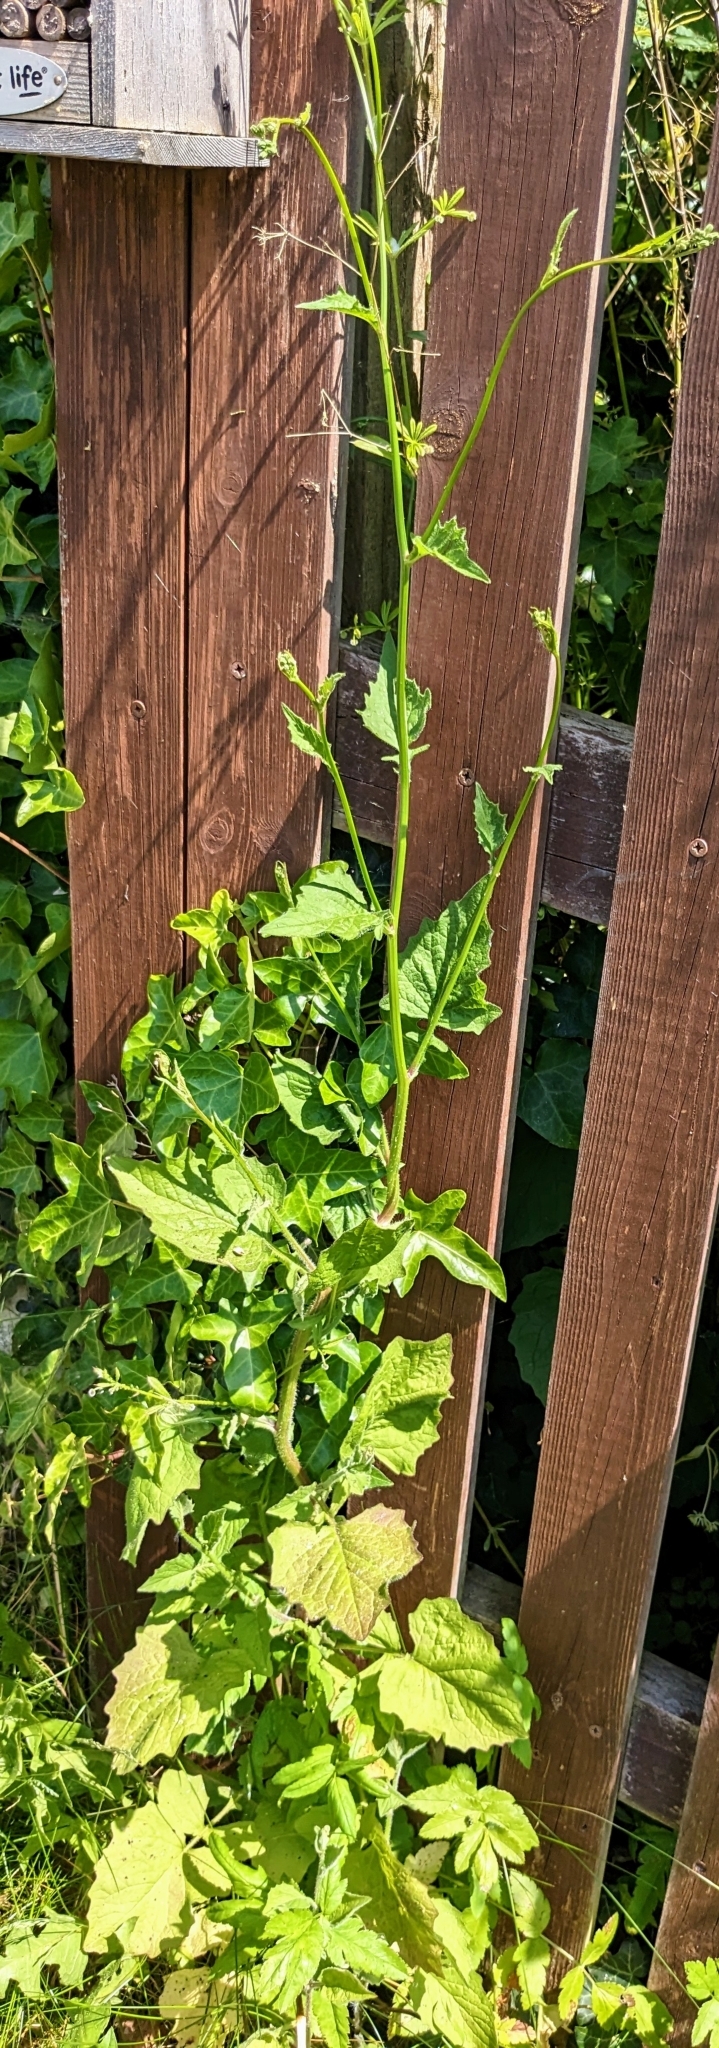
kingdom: Plantae
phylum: Tracheophyta
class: Magnoliopsida
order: Asterales
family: Asteraceae
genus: Lapsana
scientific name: Lapsana communis
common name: Nipplewort
